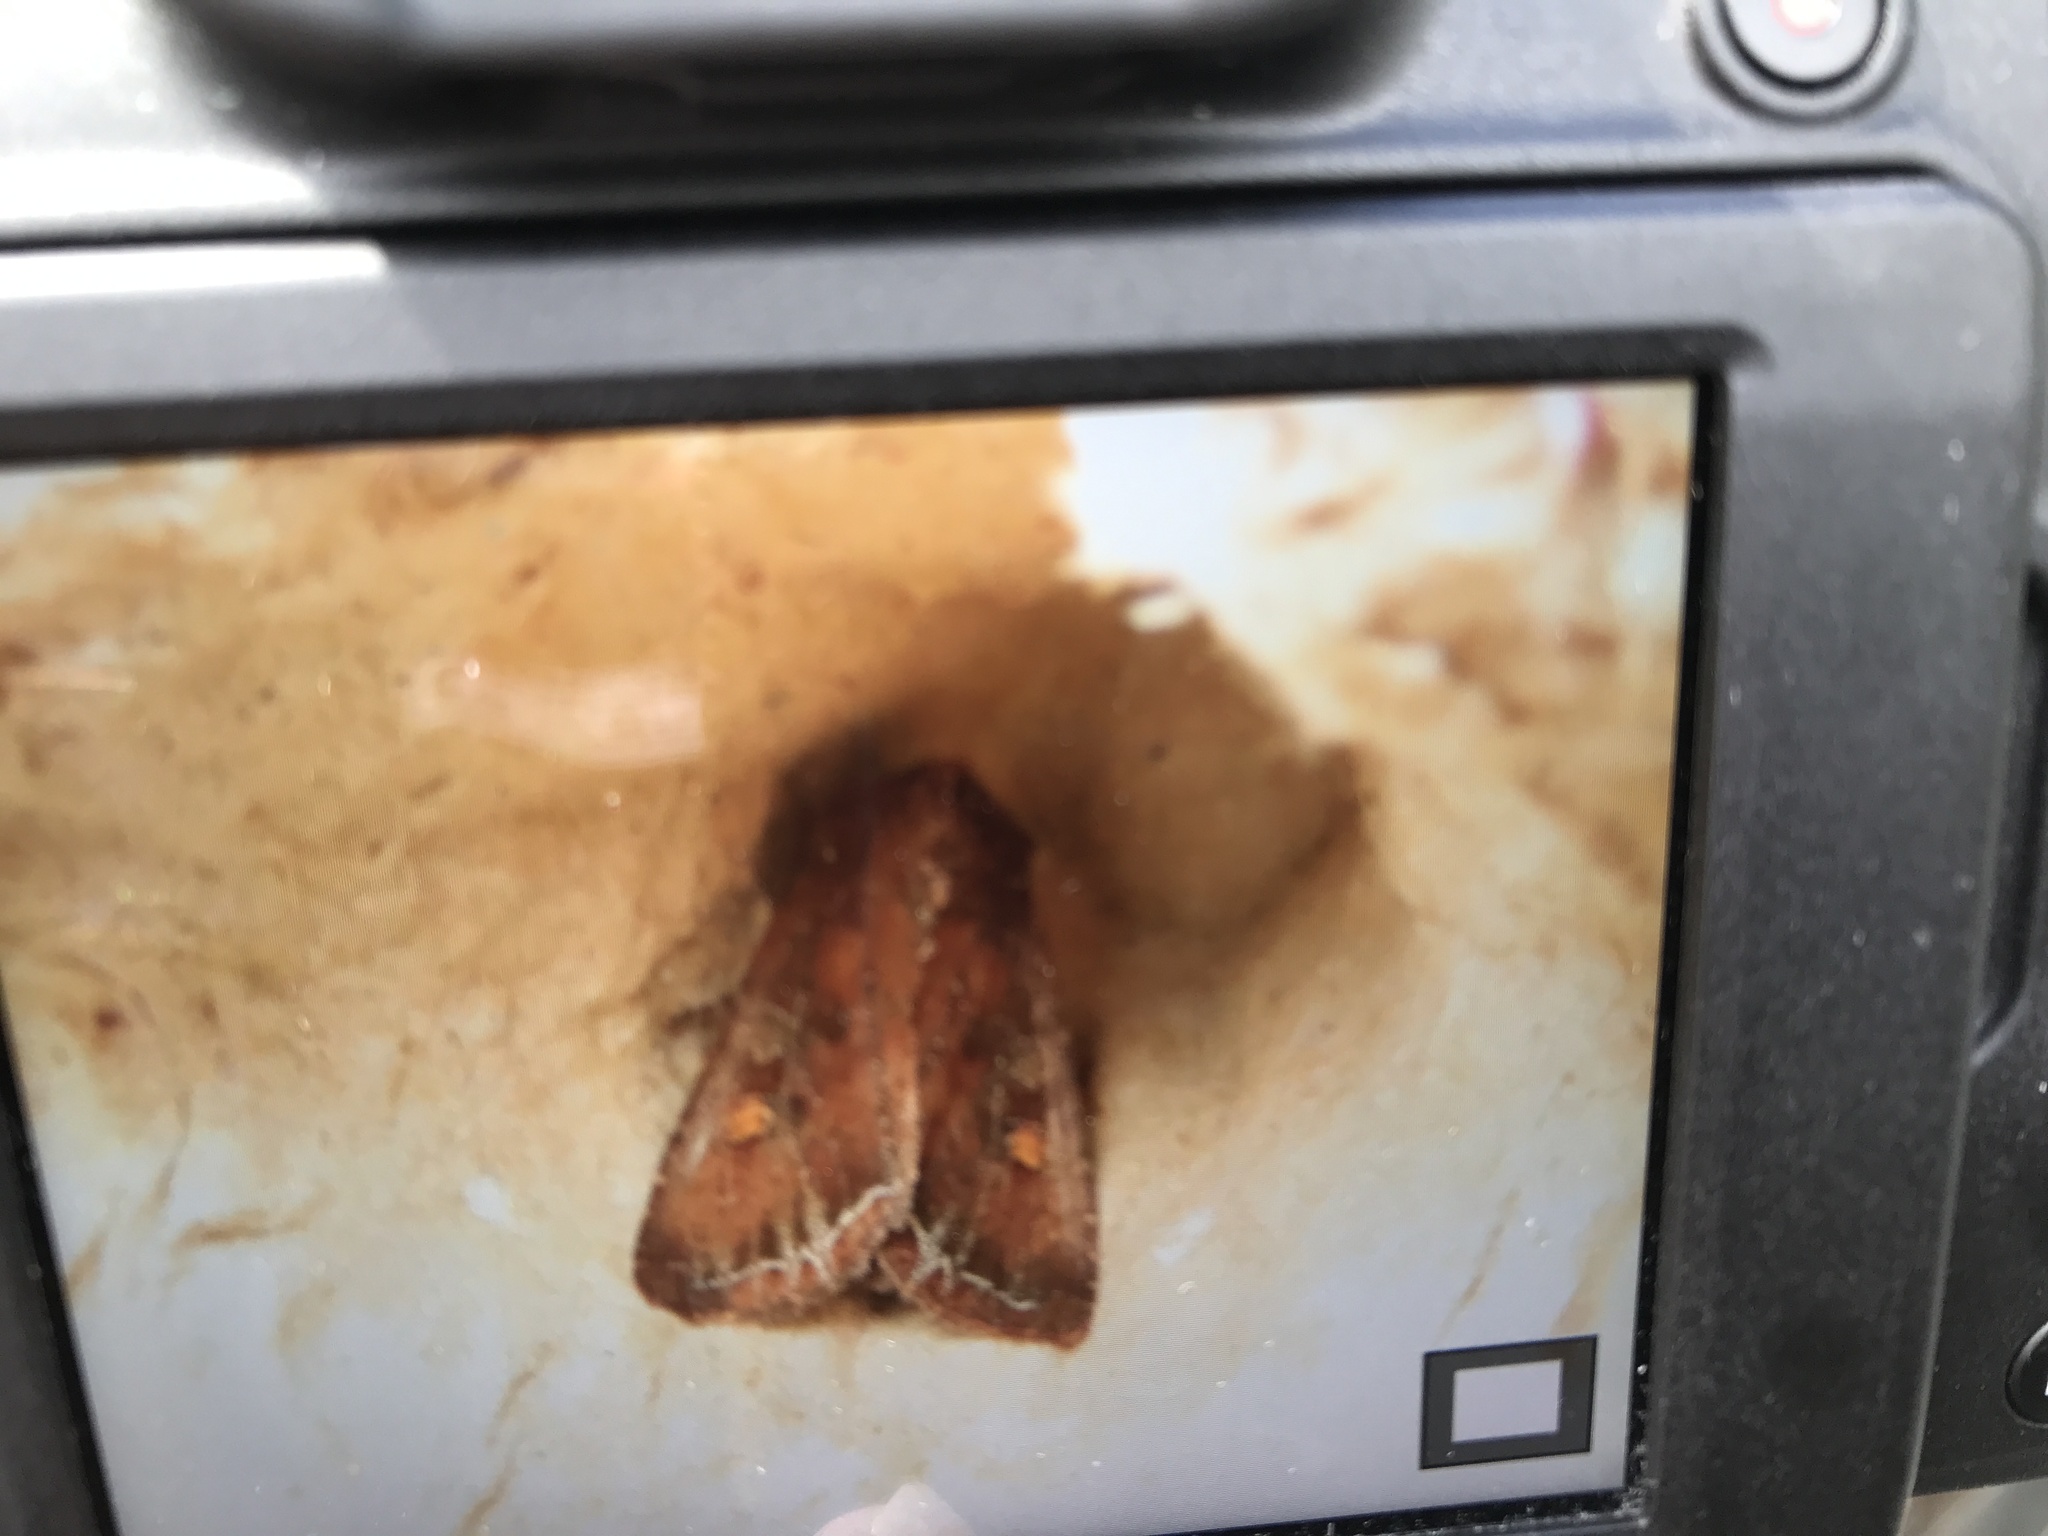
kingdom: Animalia
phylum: Arthropoda
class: Insecta
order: Lepidoptera
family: Noctuidae
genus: Lacanobia
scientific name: Lacanobia oleracea
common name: Bright-line brown-eye
